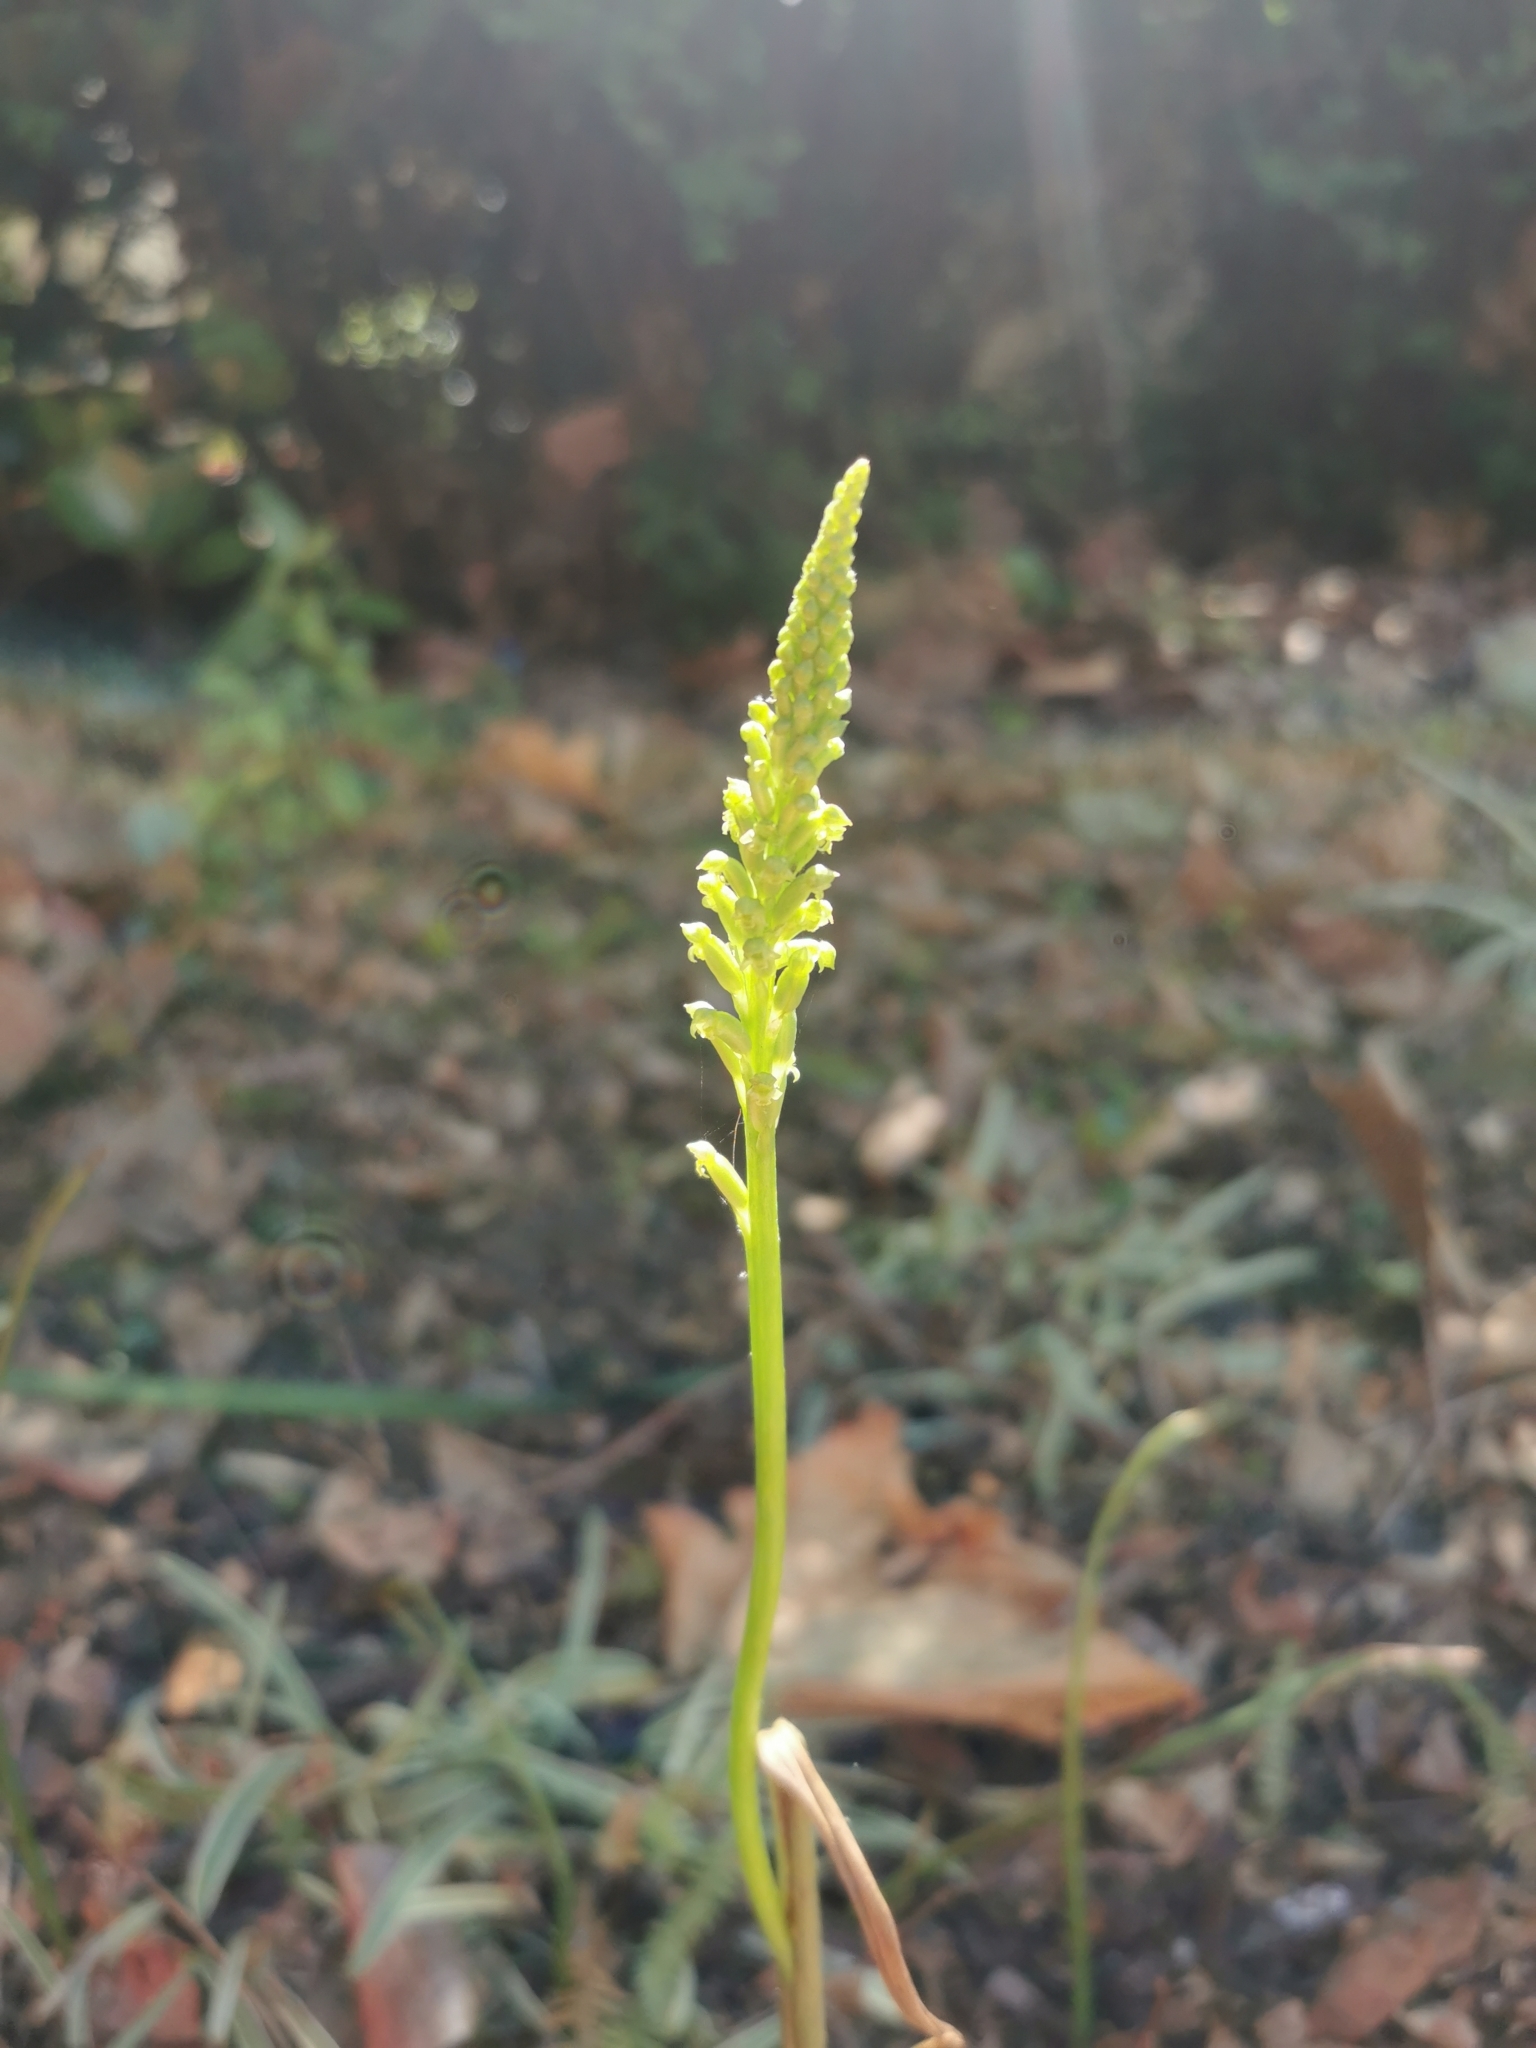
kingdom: Plantae
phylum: Tracheophyta
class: Liliopsida
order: Asparagales
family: Orchidaceae
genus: Microtis
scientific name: Microtis unifolia
